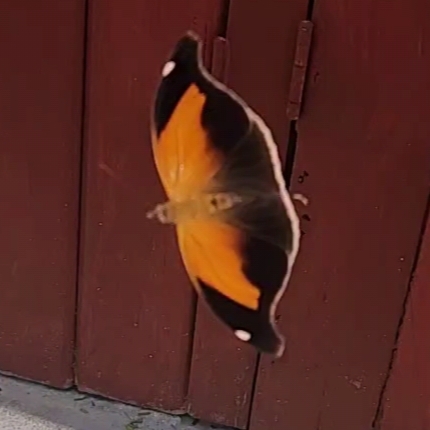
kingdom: Animalia
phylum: Arthropoda
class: Insecta
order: Lepidoptera
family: Nymphalidae
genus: Historis
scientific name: Historis odius
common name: Orion cecropian
